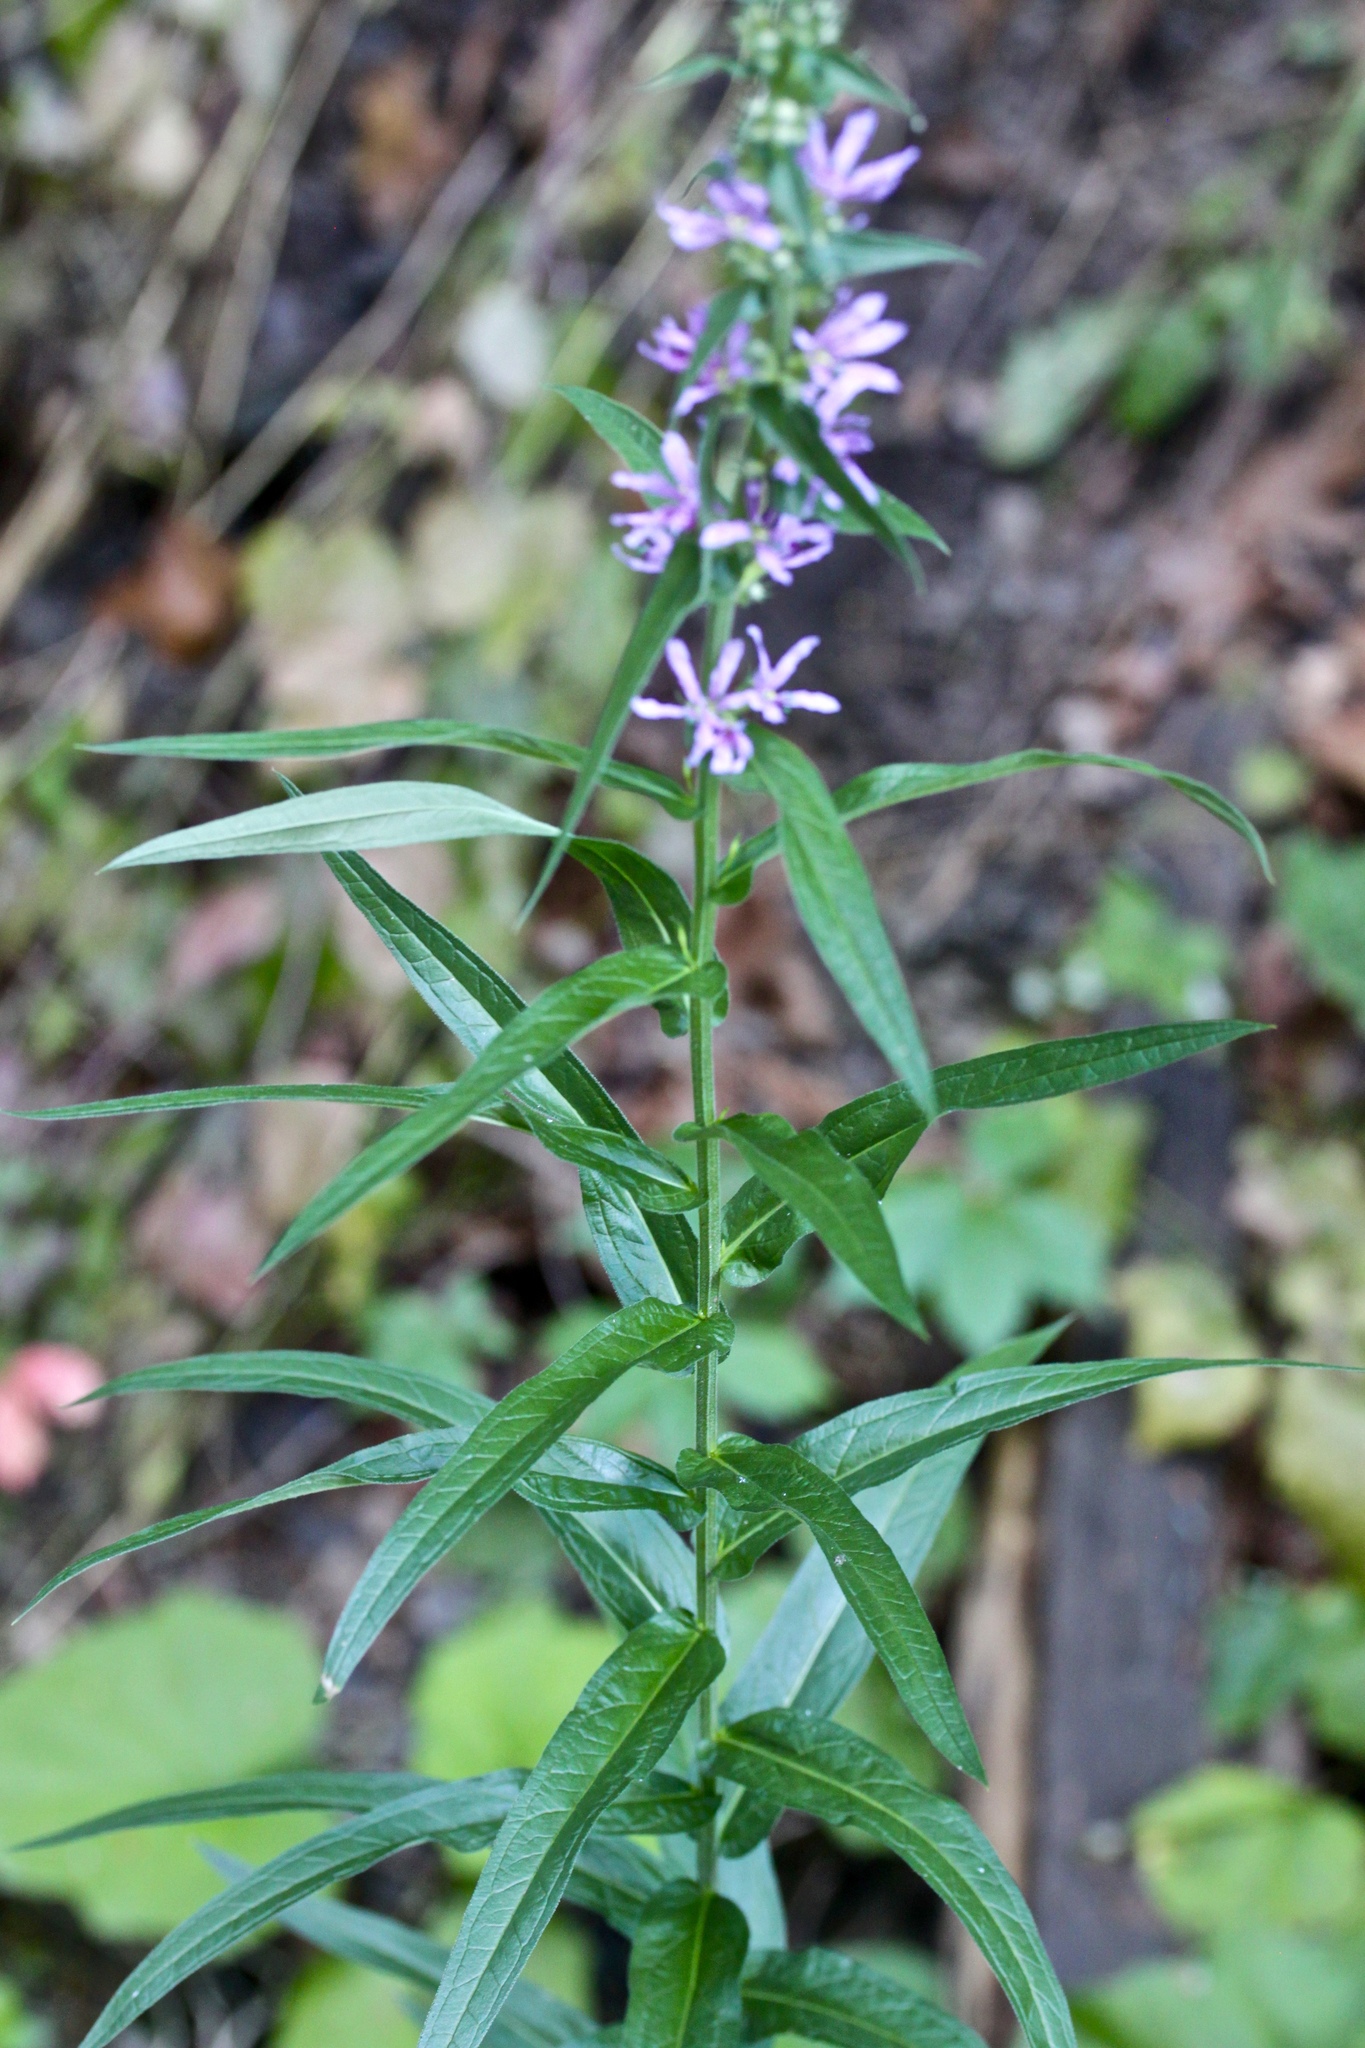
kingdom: Plantae
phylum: Tracheophyta
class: Magnoliopsida
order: Myrtales
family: Lythraceae
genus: Lythrum
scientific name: Lythrum salicaria
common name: Purple loosestrife
